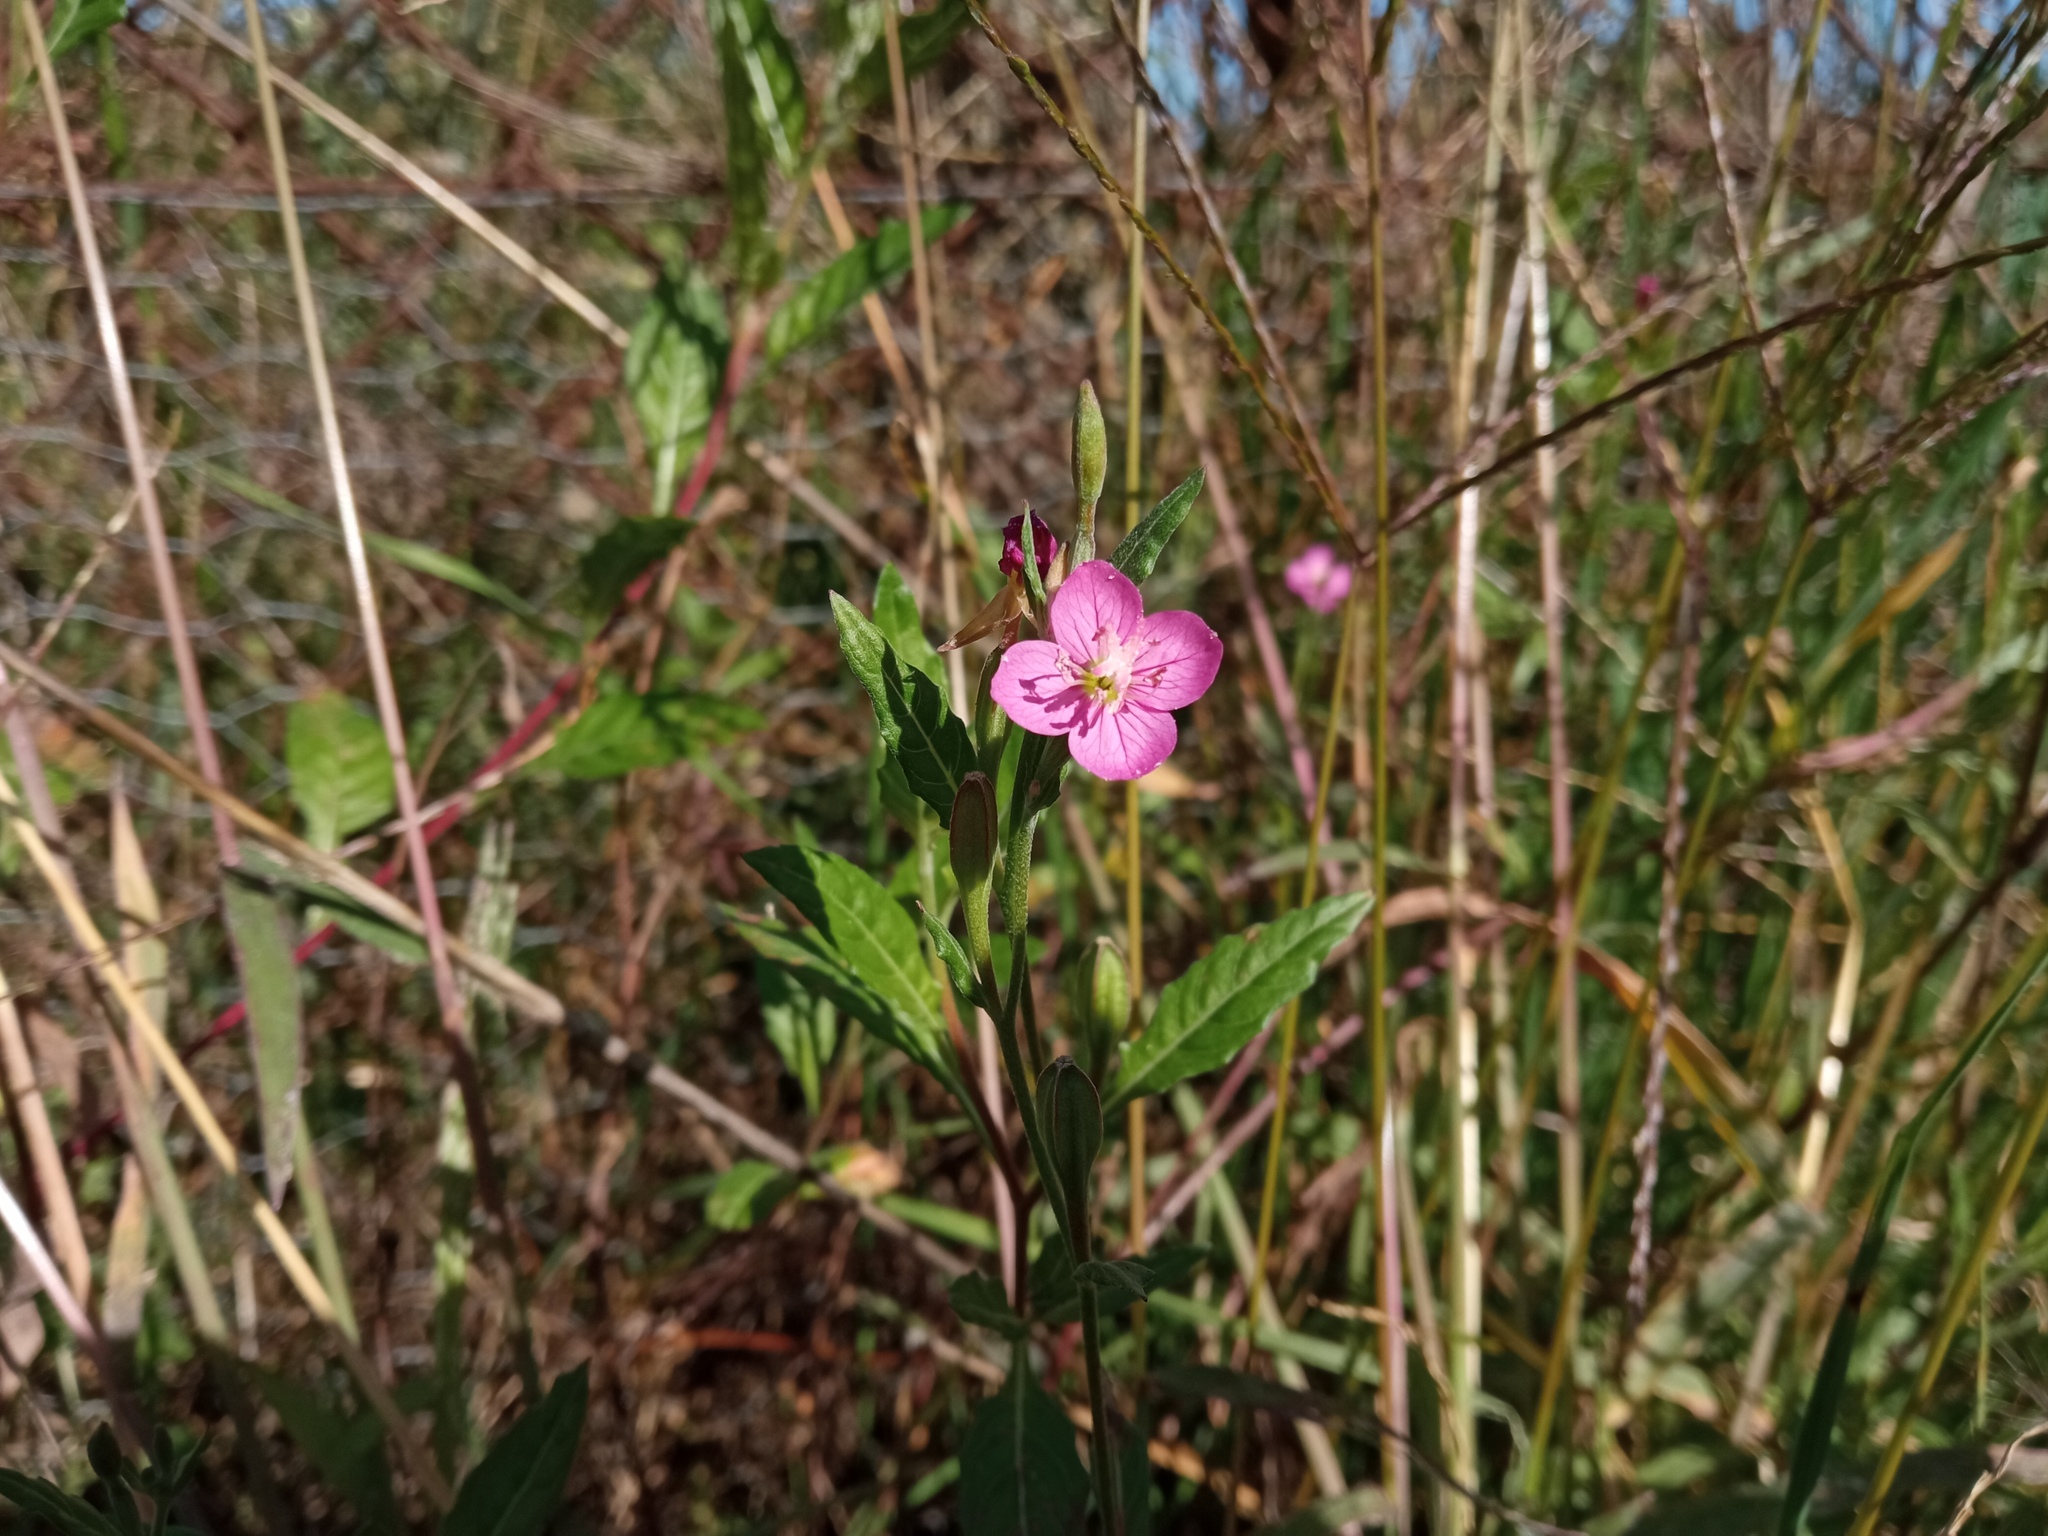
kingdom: Plantae
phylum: Tracheophyta
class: Magnoliopsida
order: Myrtales
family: Onagraceae
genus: Oenothera
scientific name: Oenothera rosea
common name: Rosy evening-primrose
